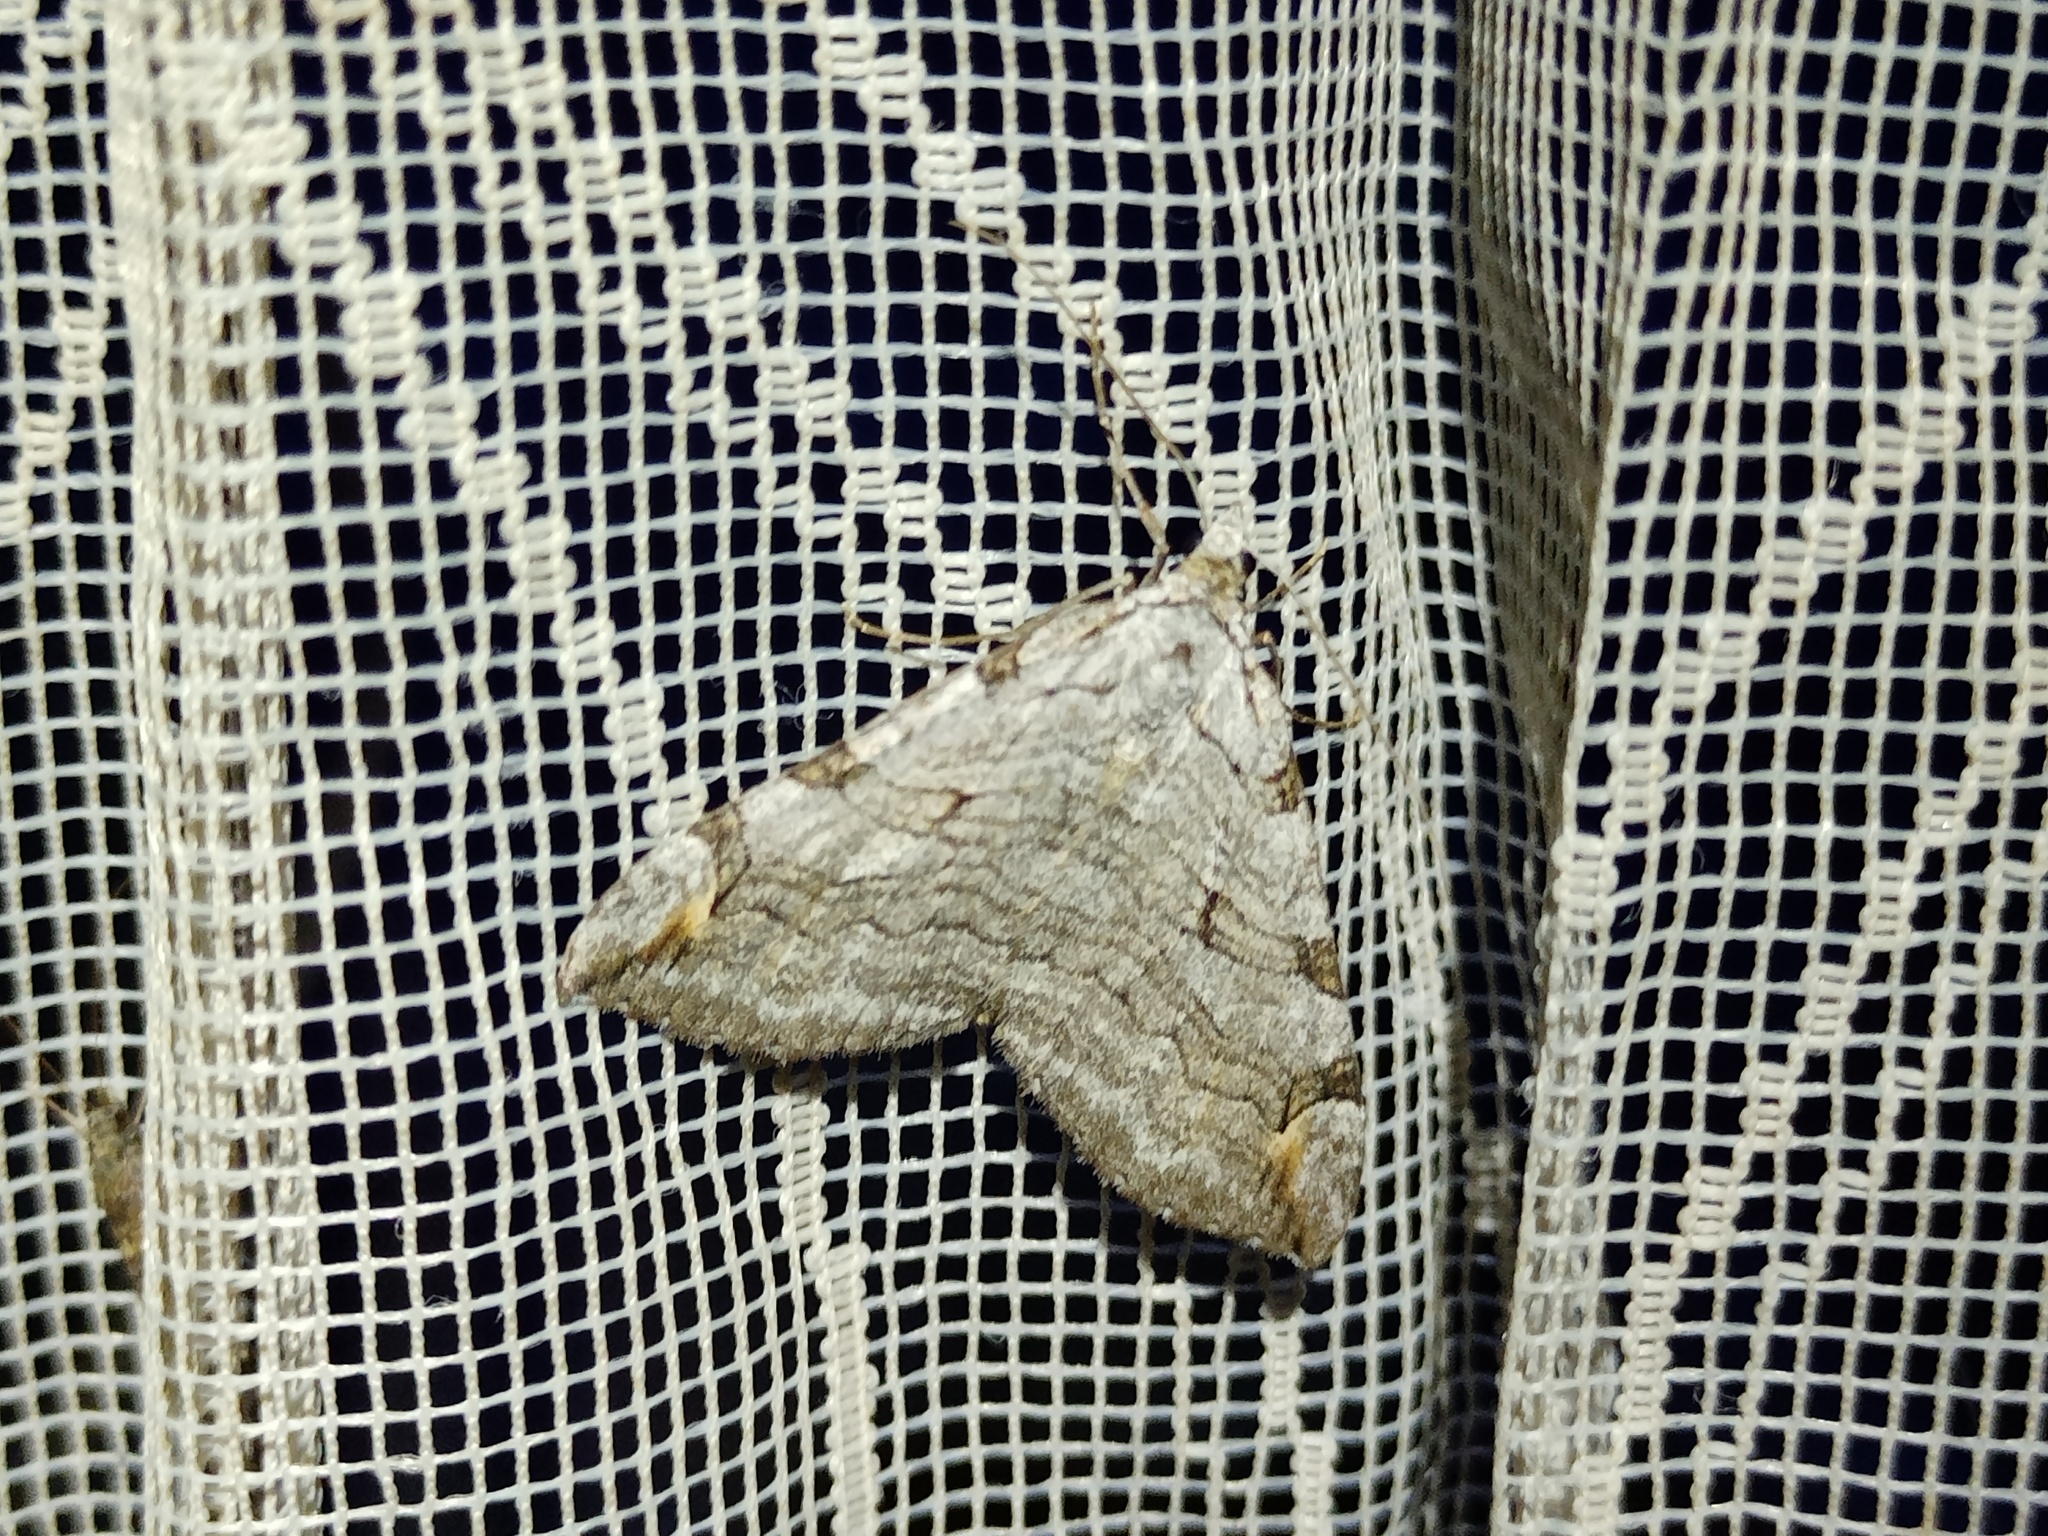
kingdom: Animalia
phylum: Arthropoda
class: Insecta
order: Lepidoptera
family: Geometridae
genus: Aplocera
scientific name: Aplocera plagiata
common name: Treble-bar
